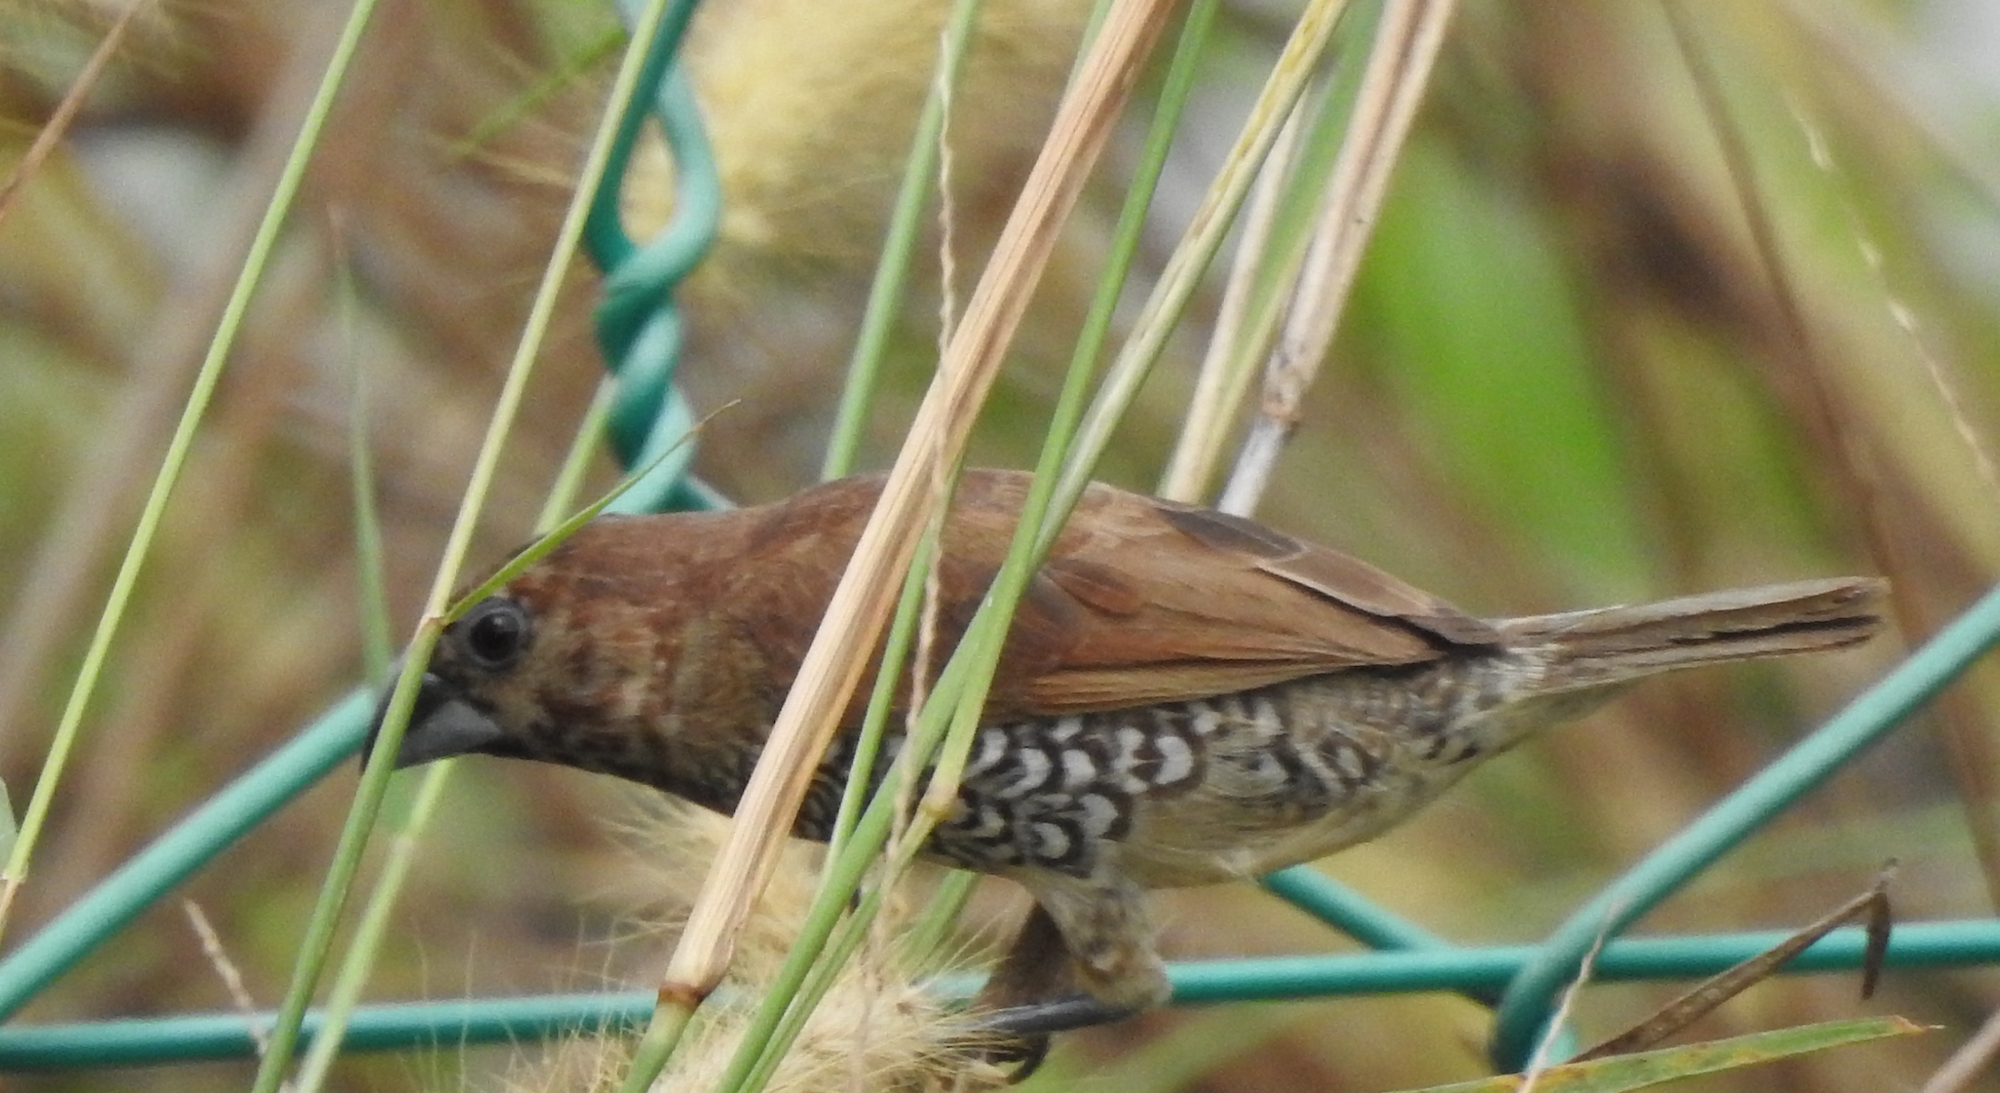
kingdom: Animalia
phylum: Chordata
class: Aves
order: Passeriformes
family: Estrildidae
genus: Lonchura
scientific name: Lonchura punctulata
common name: Scaly-breasted munia
